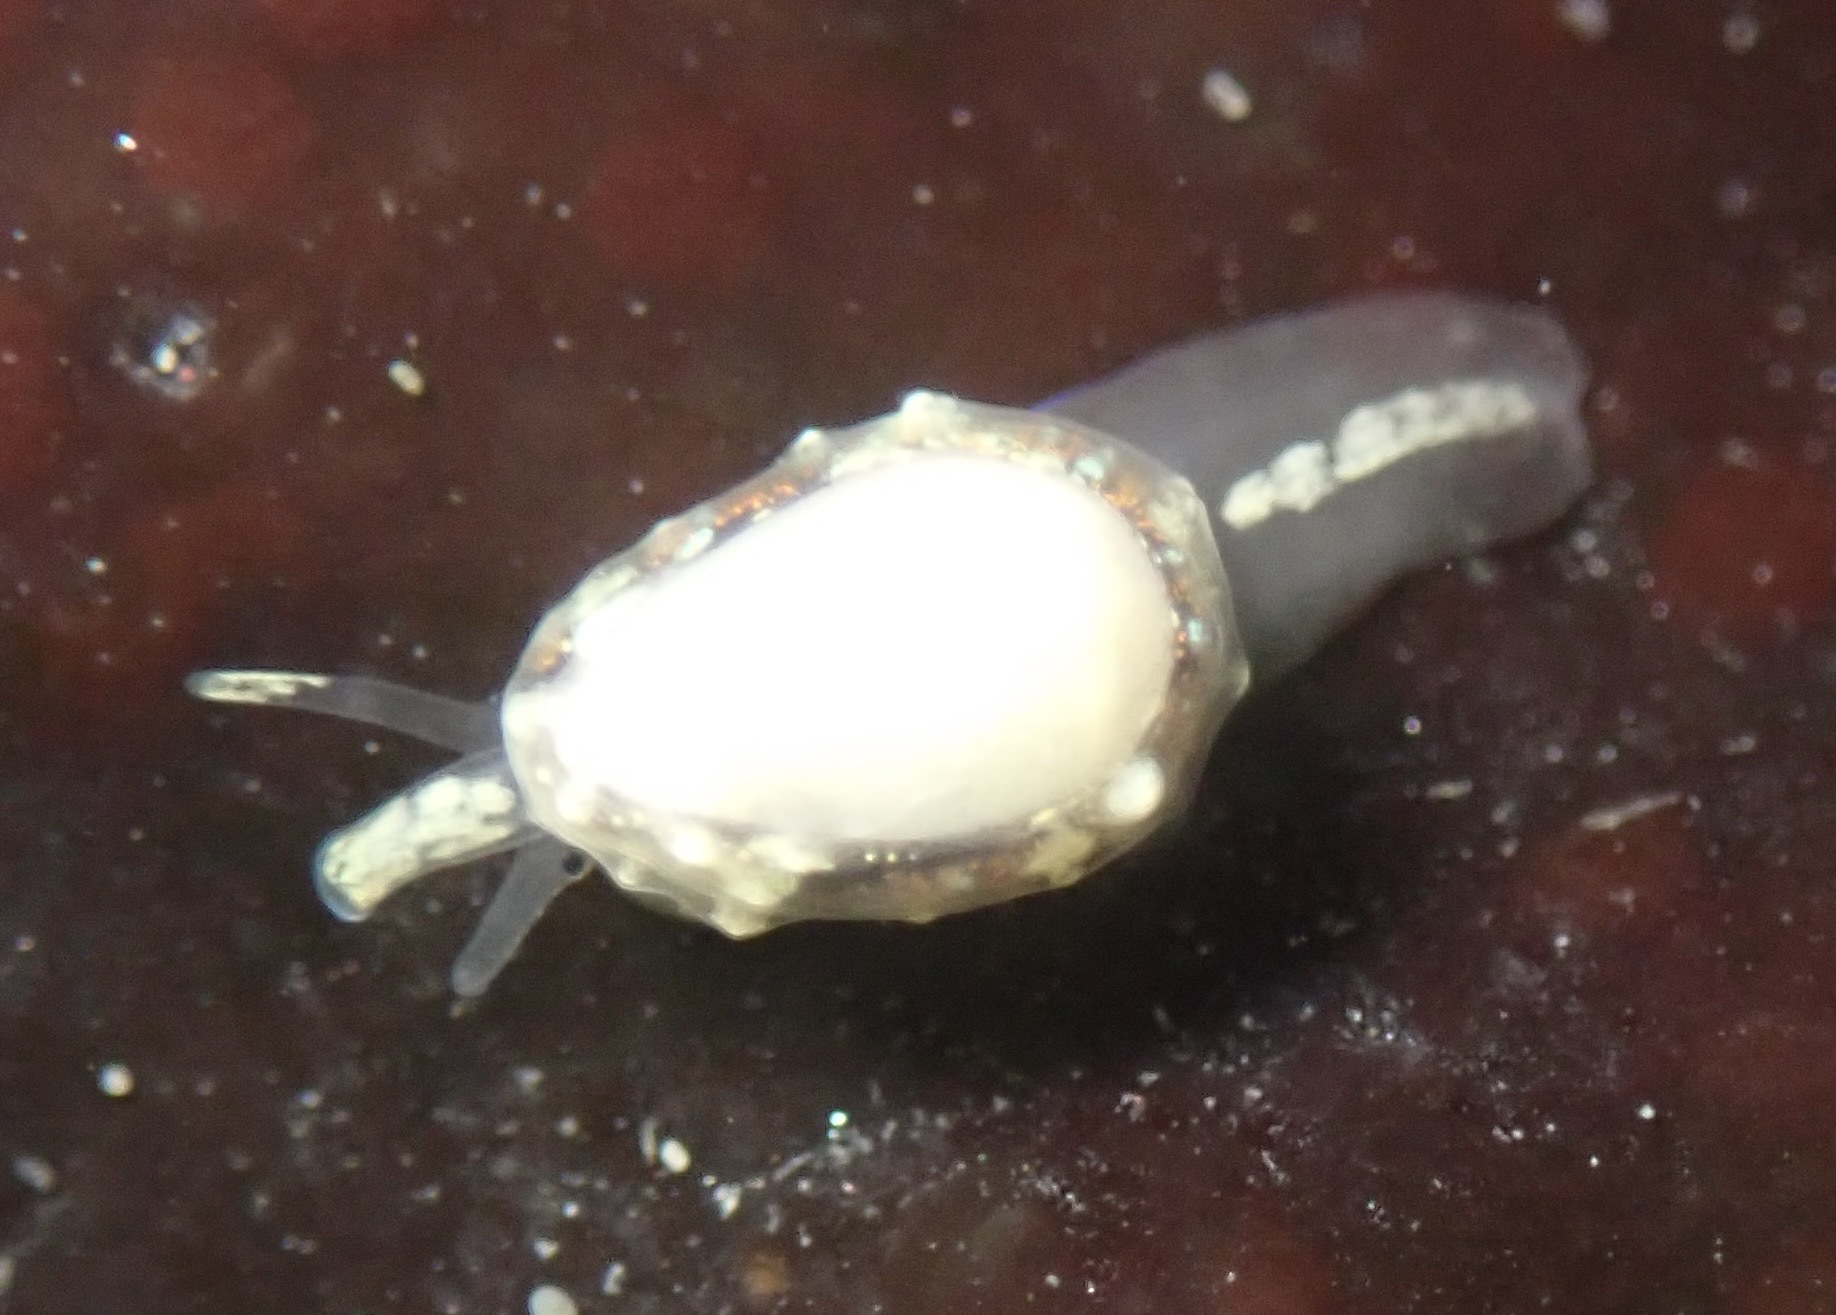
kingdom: Animalia
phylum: Mollusca
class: Gastropoda
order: Neogastropoda
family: Granulinidae
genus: Granulina
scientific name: Granulina margaritula
